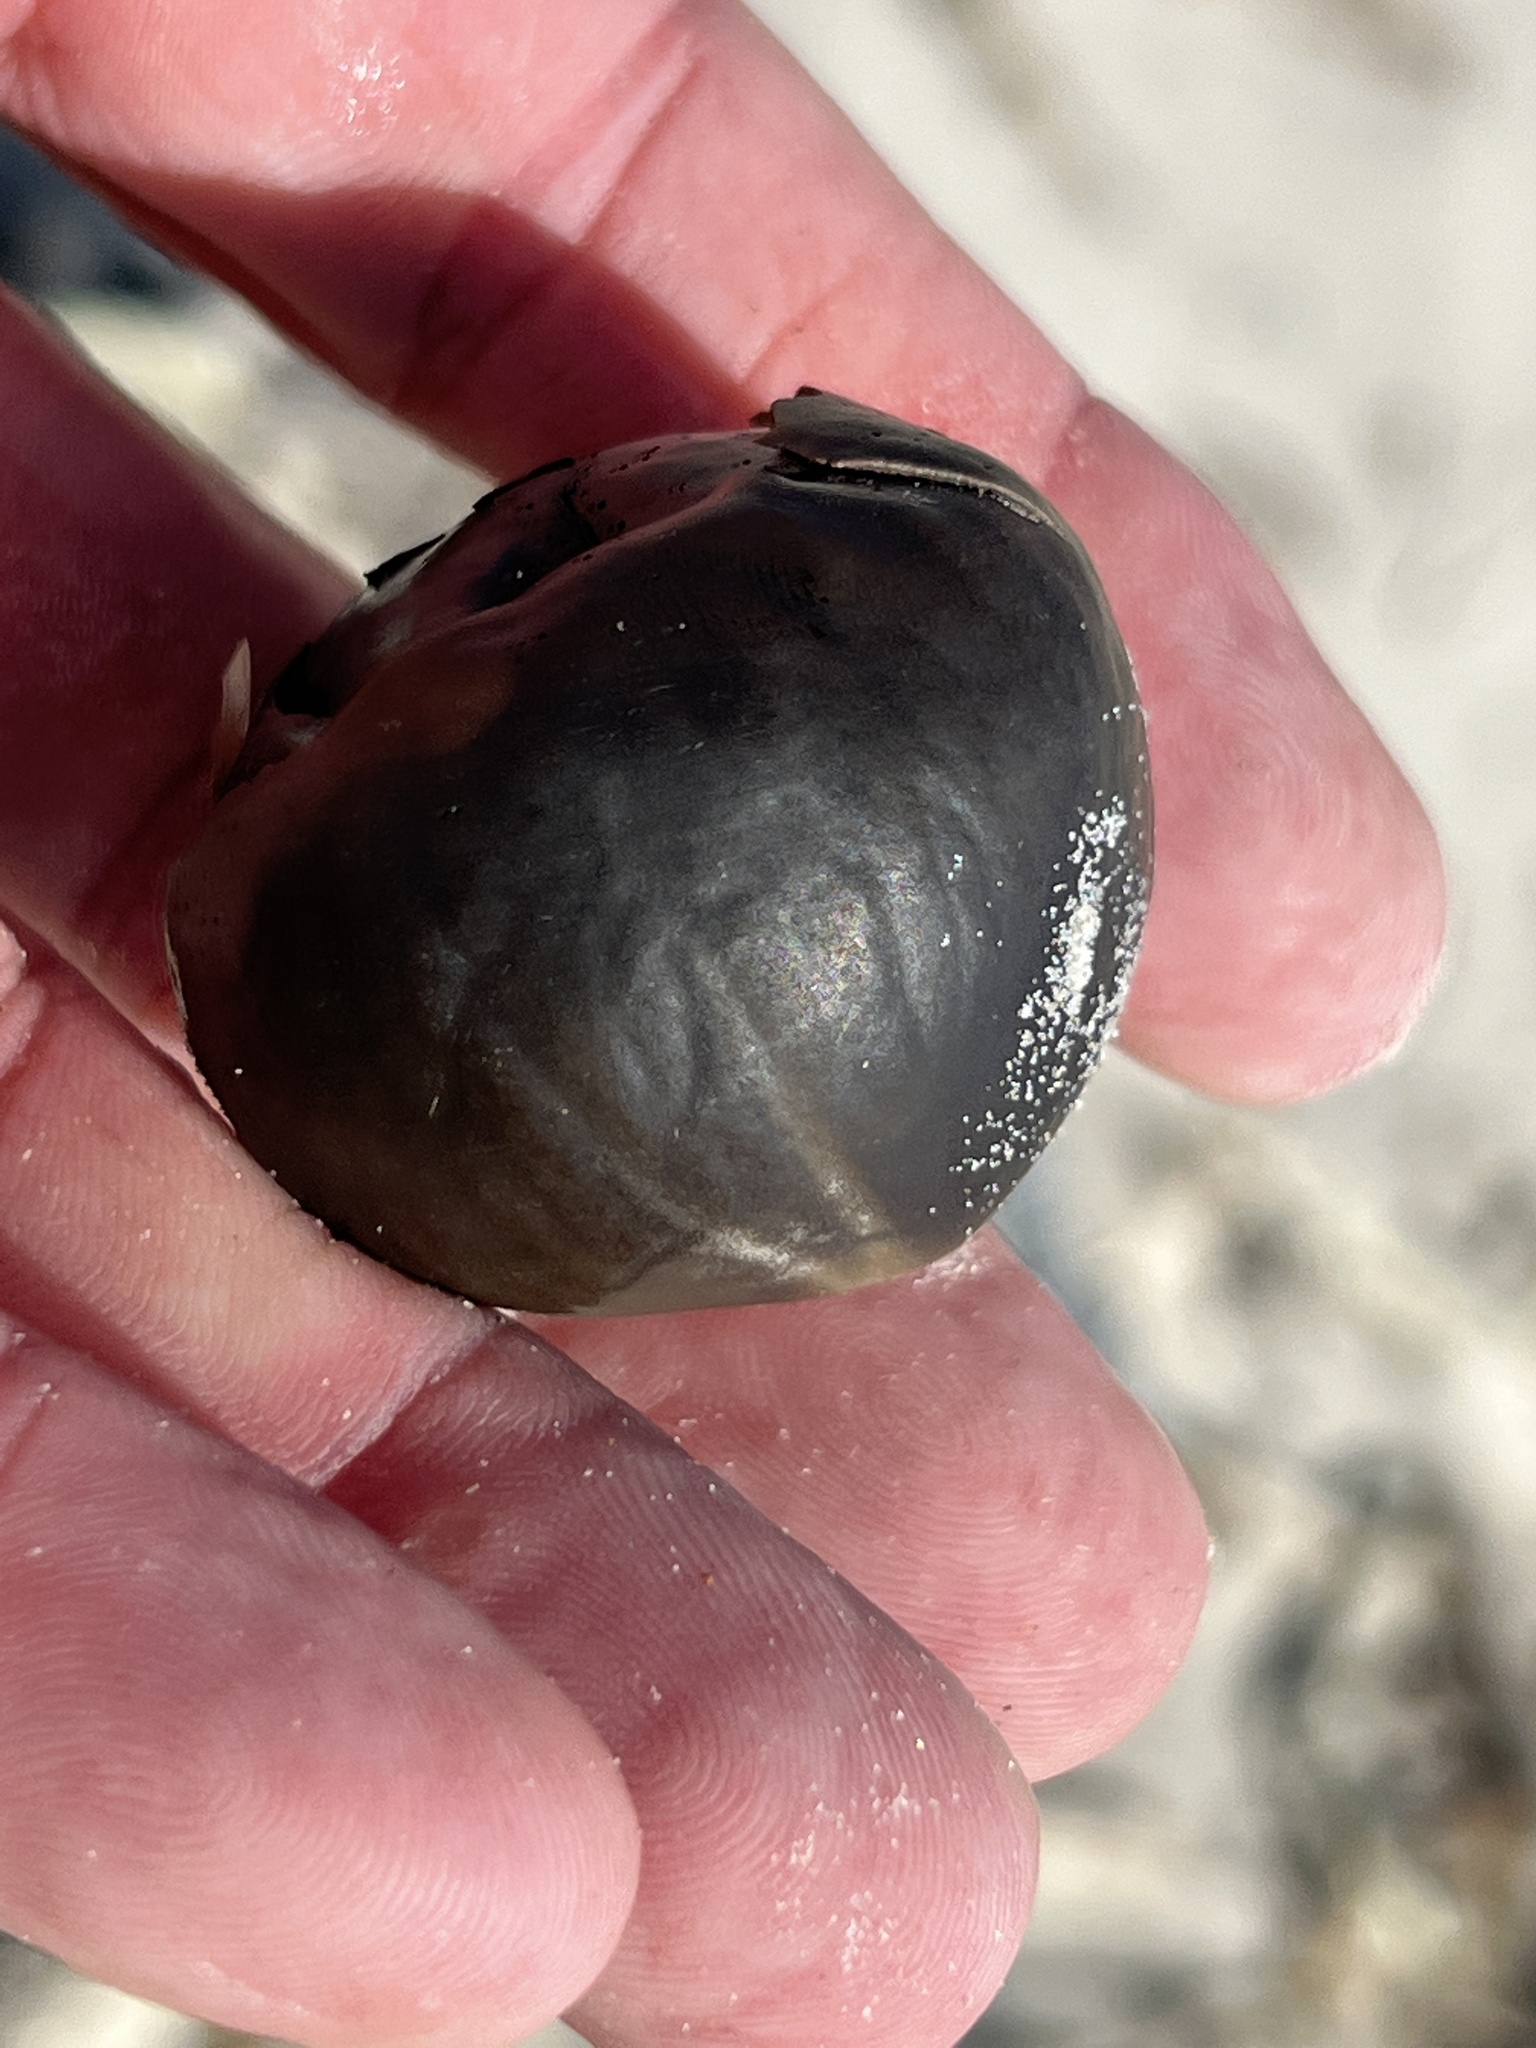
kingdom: Plantae
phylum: Tracheophyta
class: Liliopsida
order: Arecales
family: Arecaceae
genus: Manicaria
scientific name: Manicaria saccifera
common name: Sea coconut
